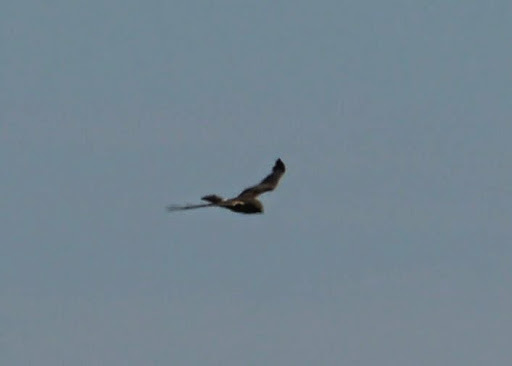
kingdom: Animalia
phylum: Chordata
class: Aves
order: Accipitriformes
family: Accipitridae
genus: Circus
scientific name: Circus cyaneus
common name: Hen harrier
